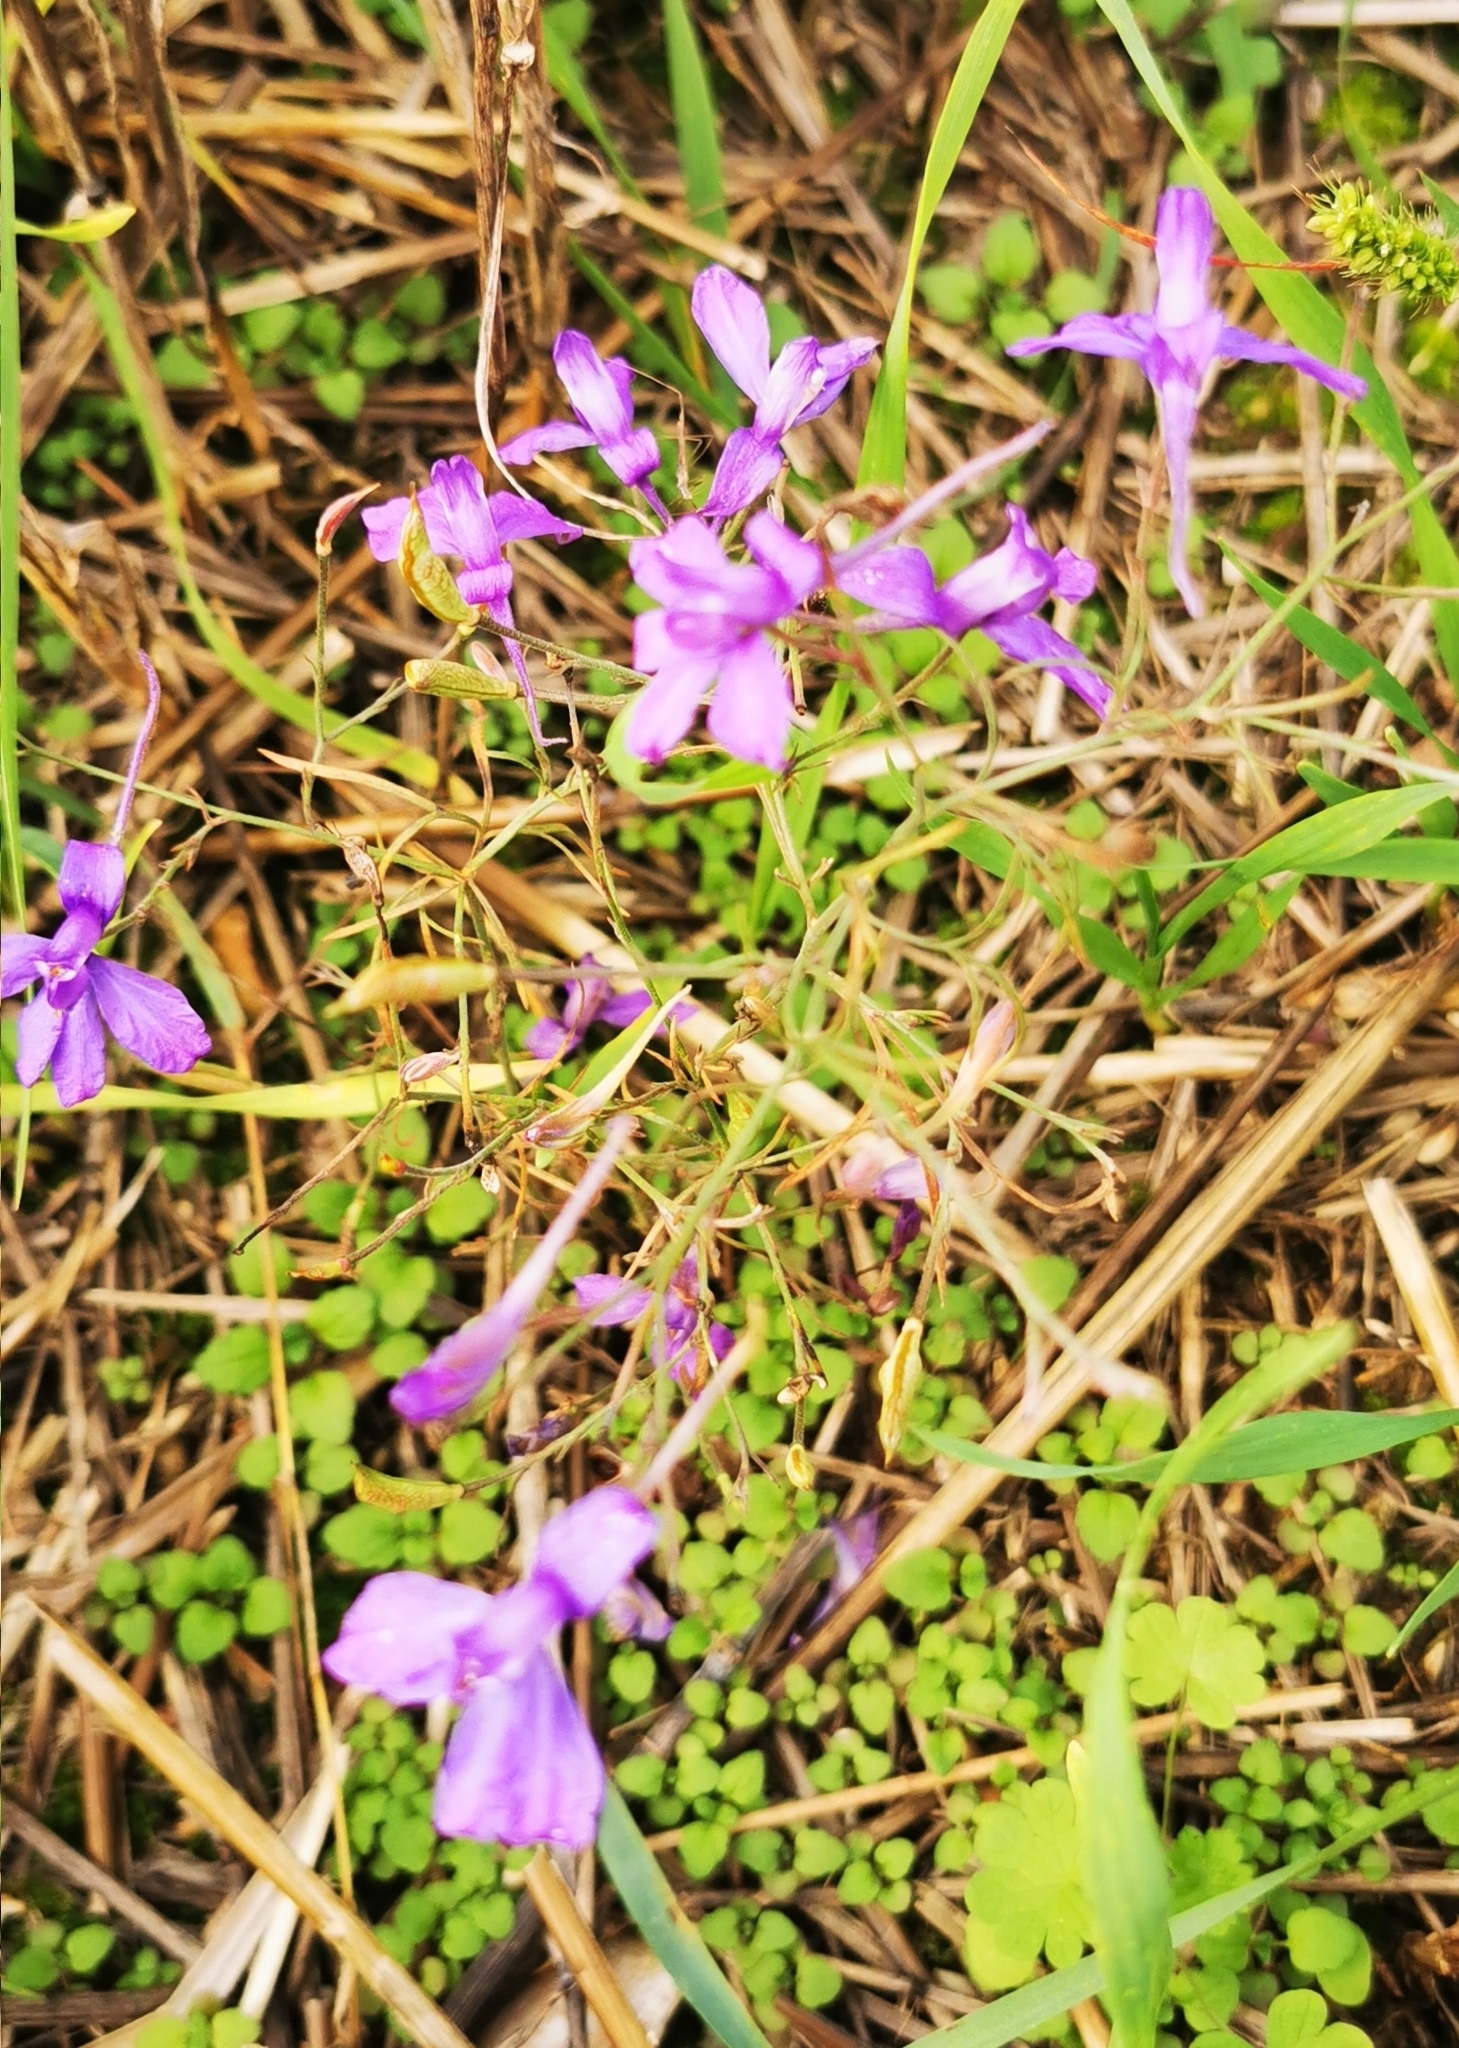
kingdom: Plantae
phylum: Tracheophyta
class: Magnoliopsida
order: Ranunculales
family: Ranunculaceae
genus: Delphinium
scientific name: Delphinium consolida
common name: Branching larkspur
